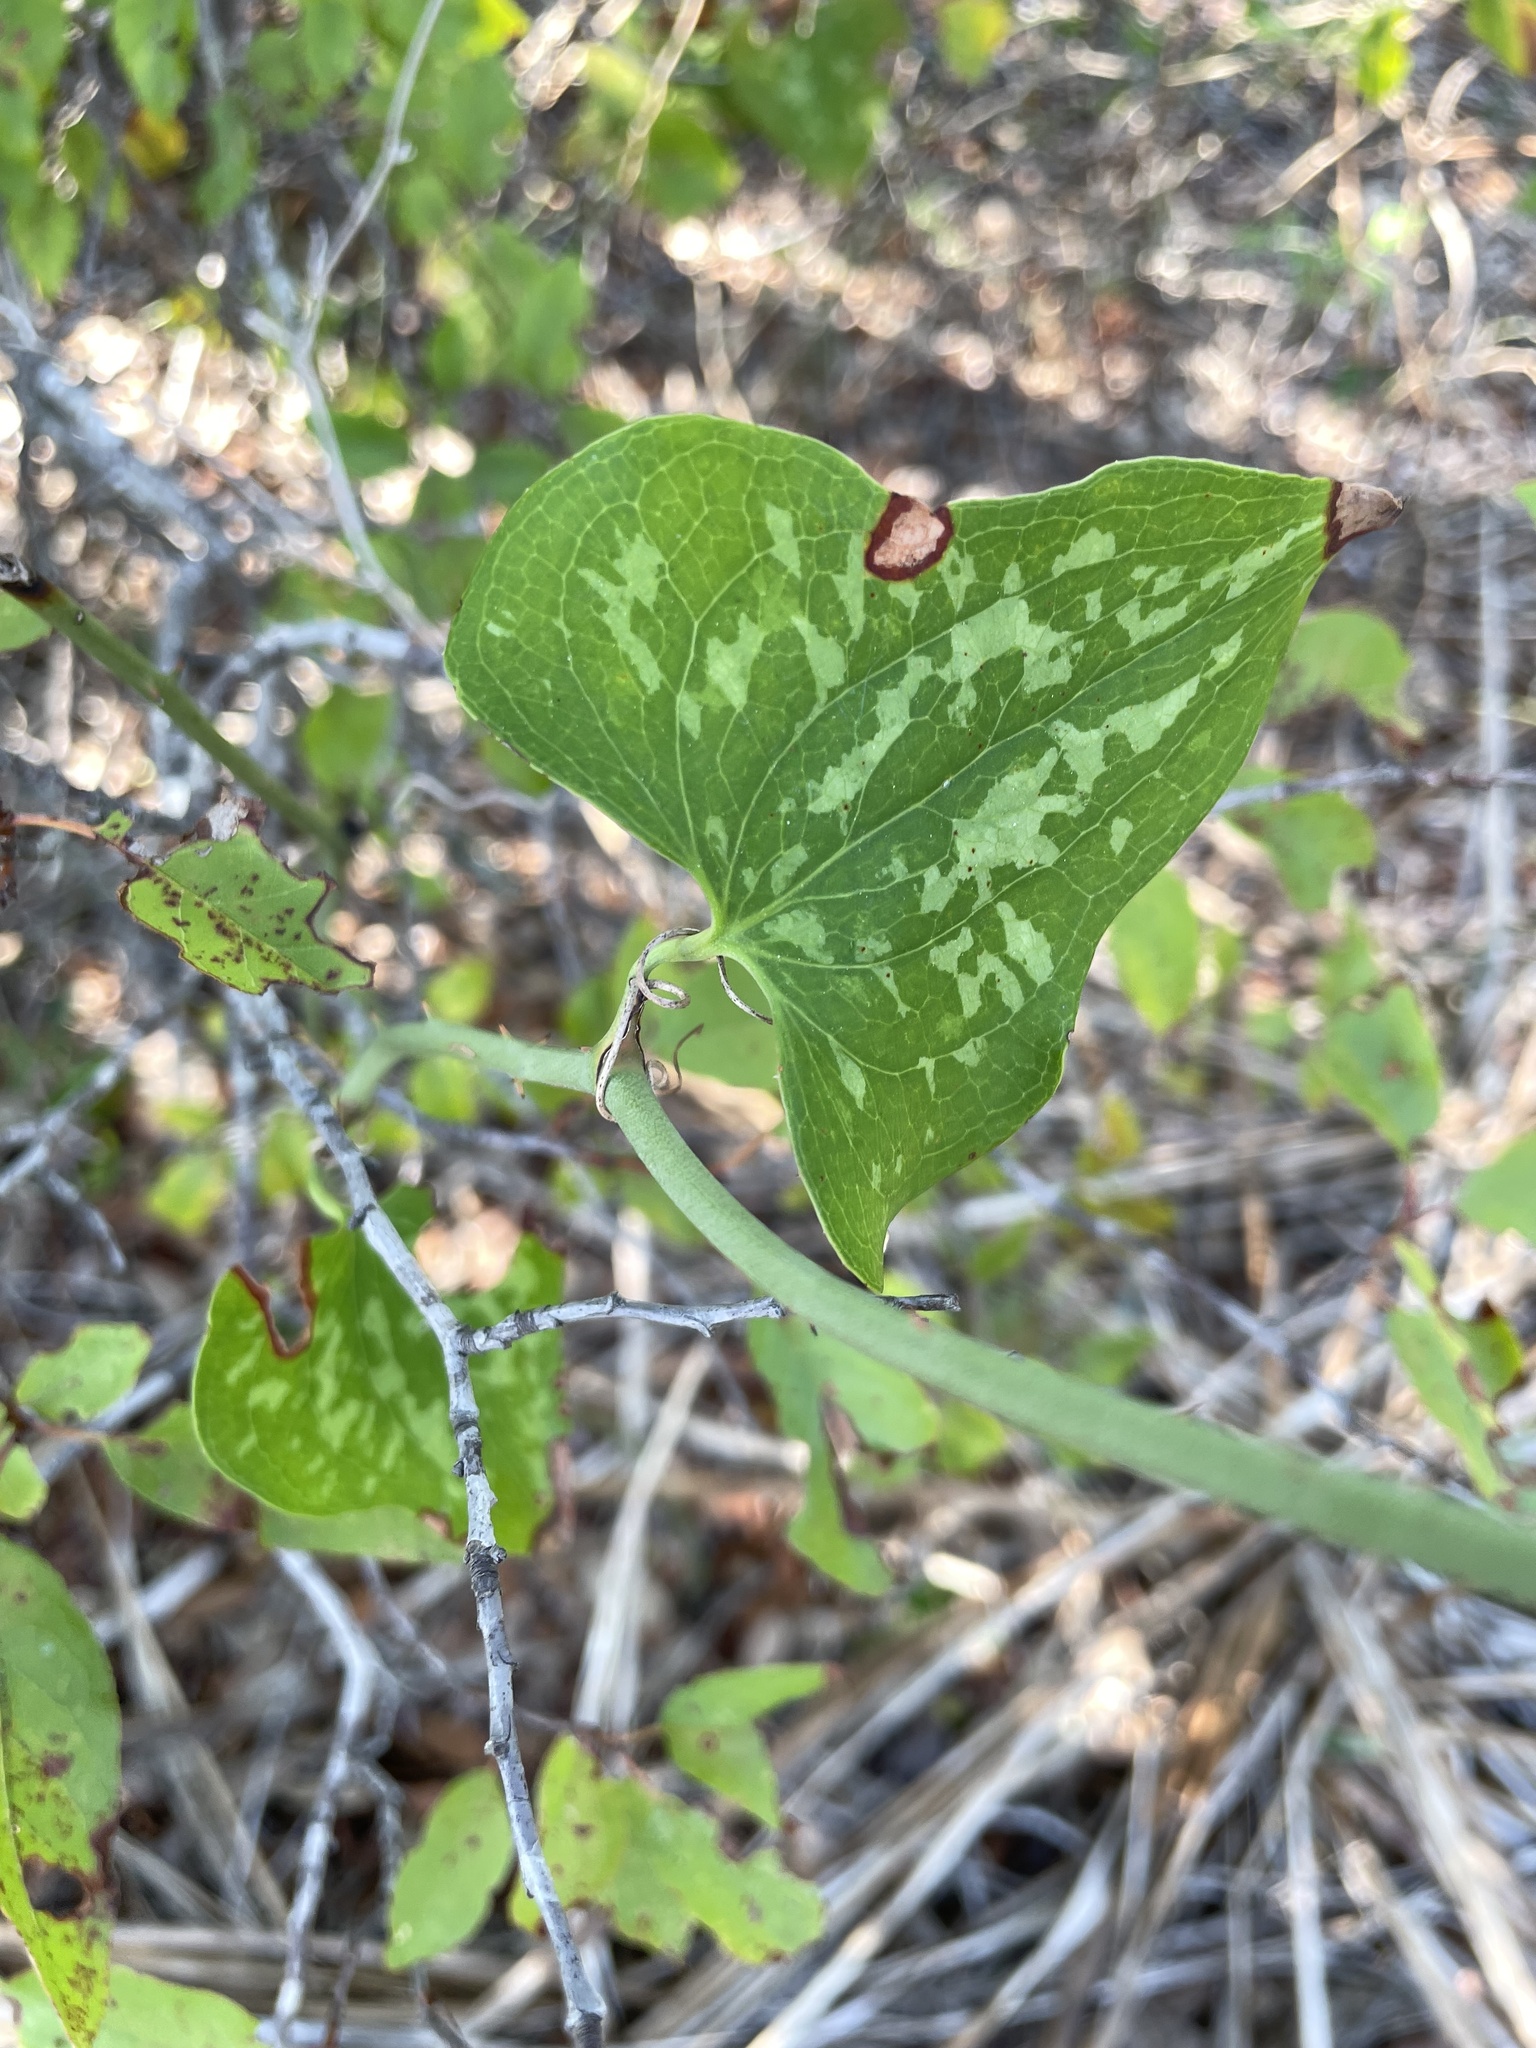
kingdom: Plantae
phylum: Tracheophyta
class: Liliopsida
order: Liliales
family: Smilacaceae
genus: Smilax
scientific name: Smilax bona-nox
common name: Catbrier
